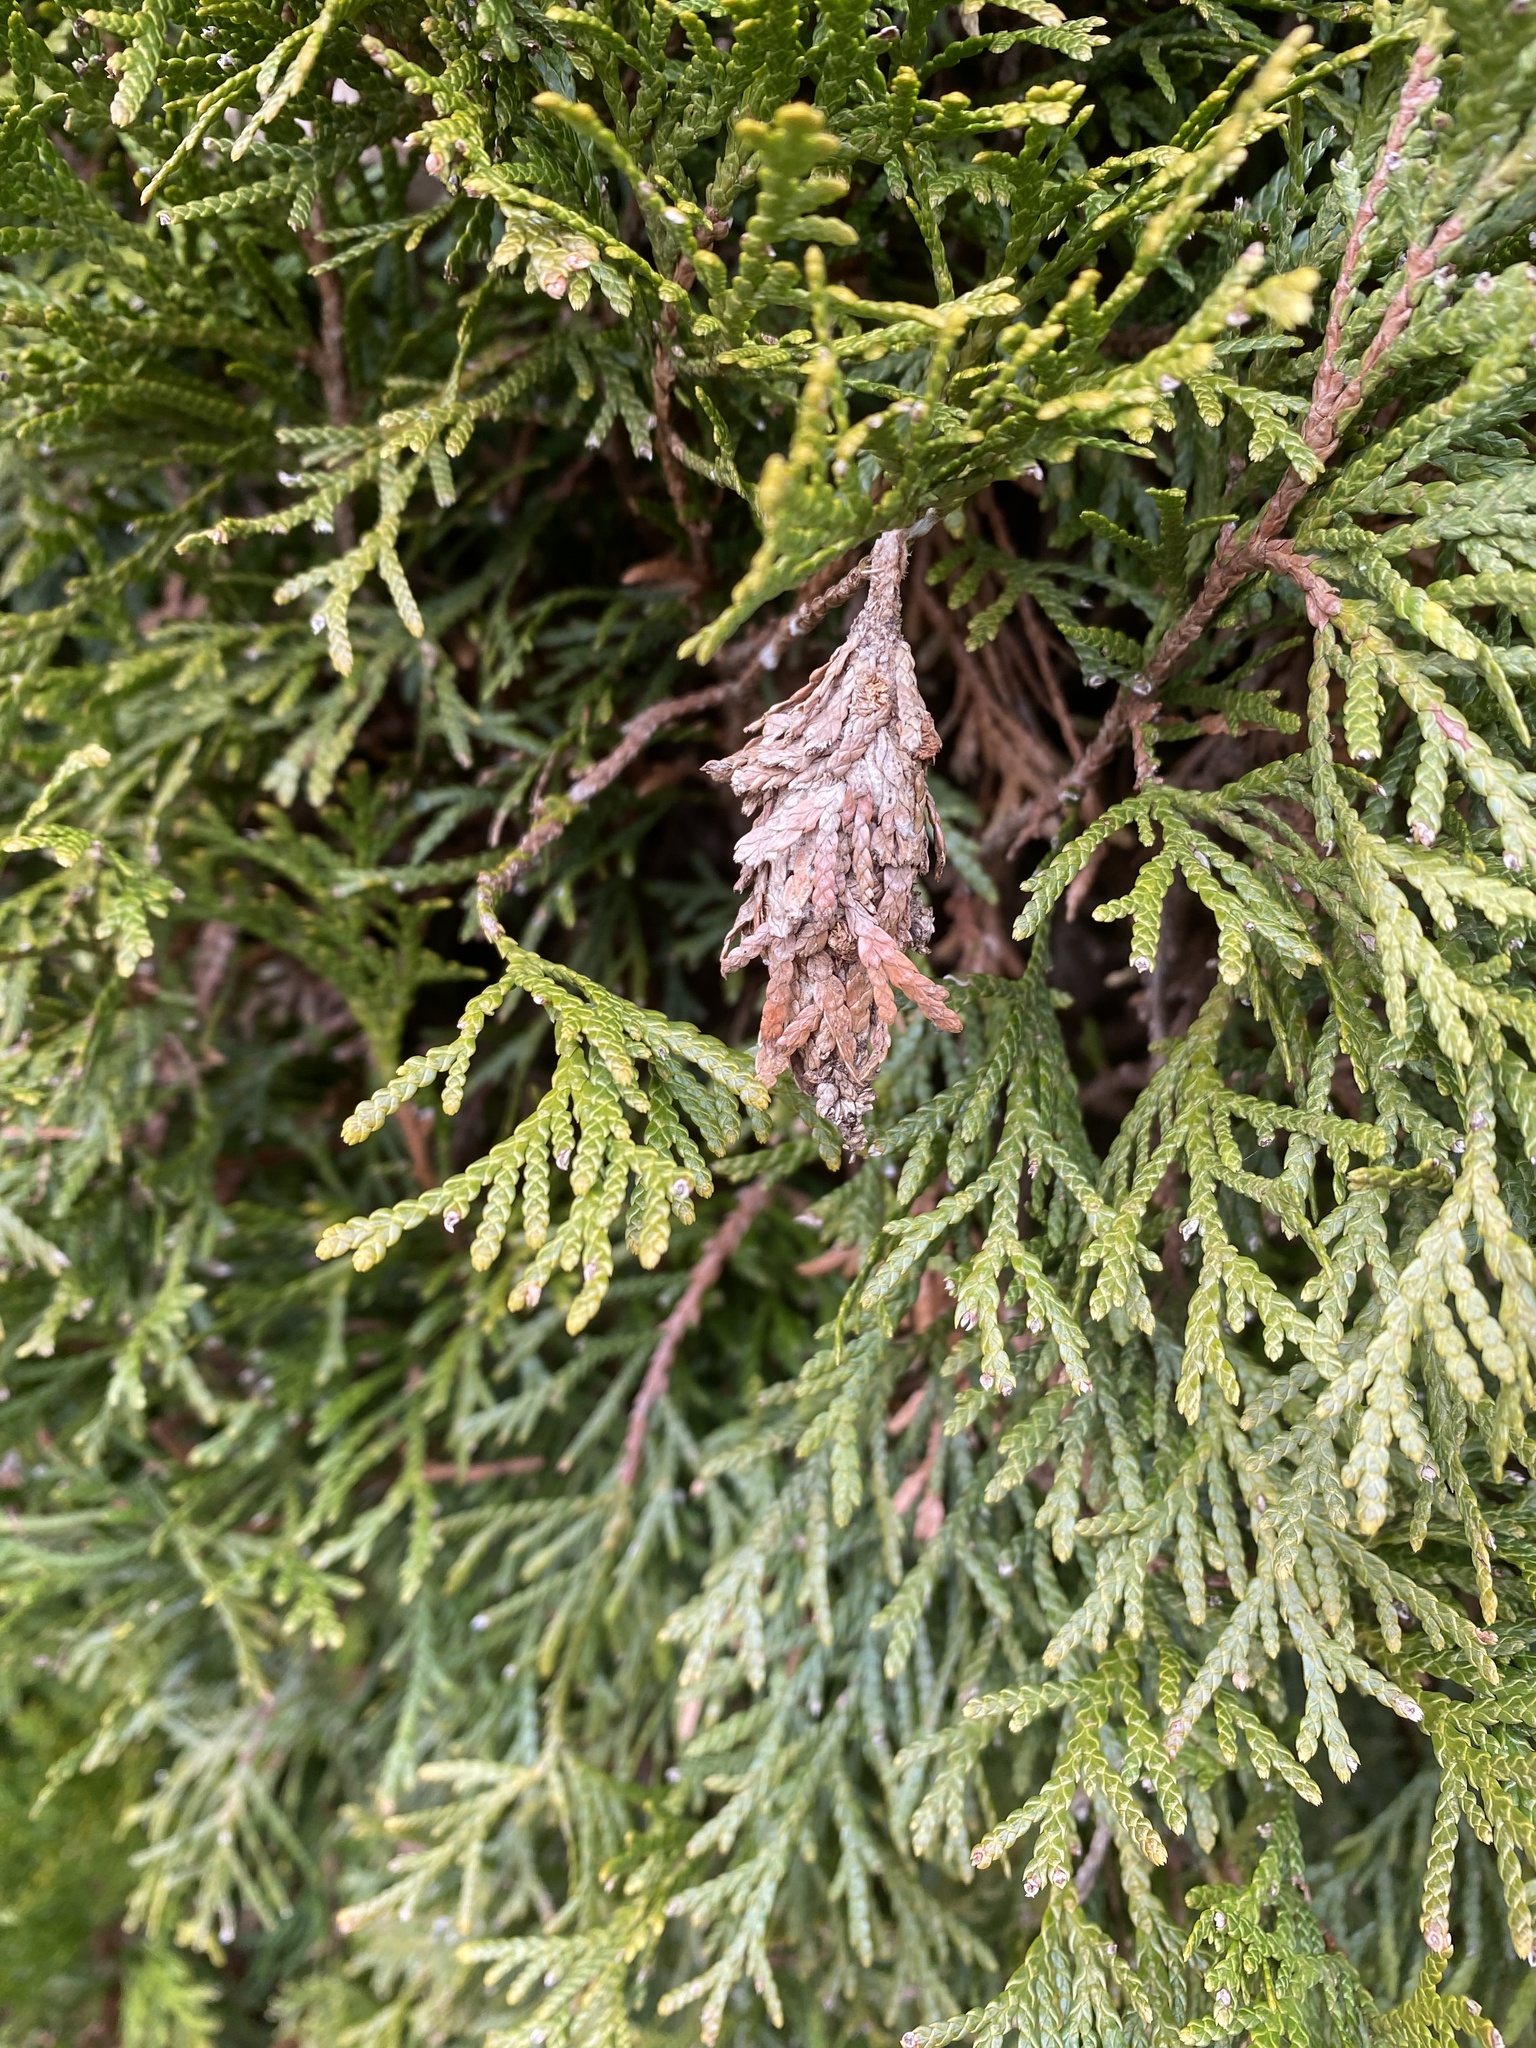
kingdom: Animalia
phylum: Arthropoda
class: Insecta
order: Lepidoptera
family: Psychidae
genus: Thyridopteryx
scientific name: Thyridopteryx ephemeraeformis
